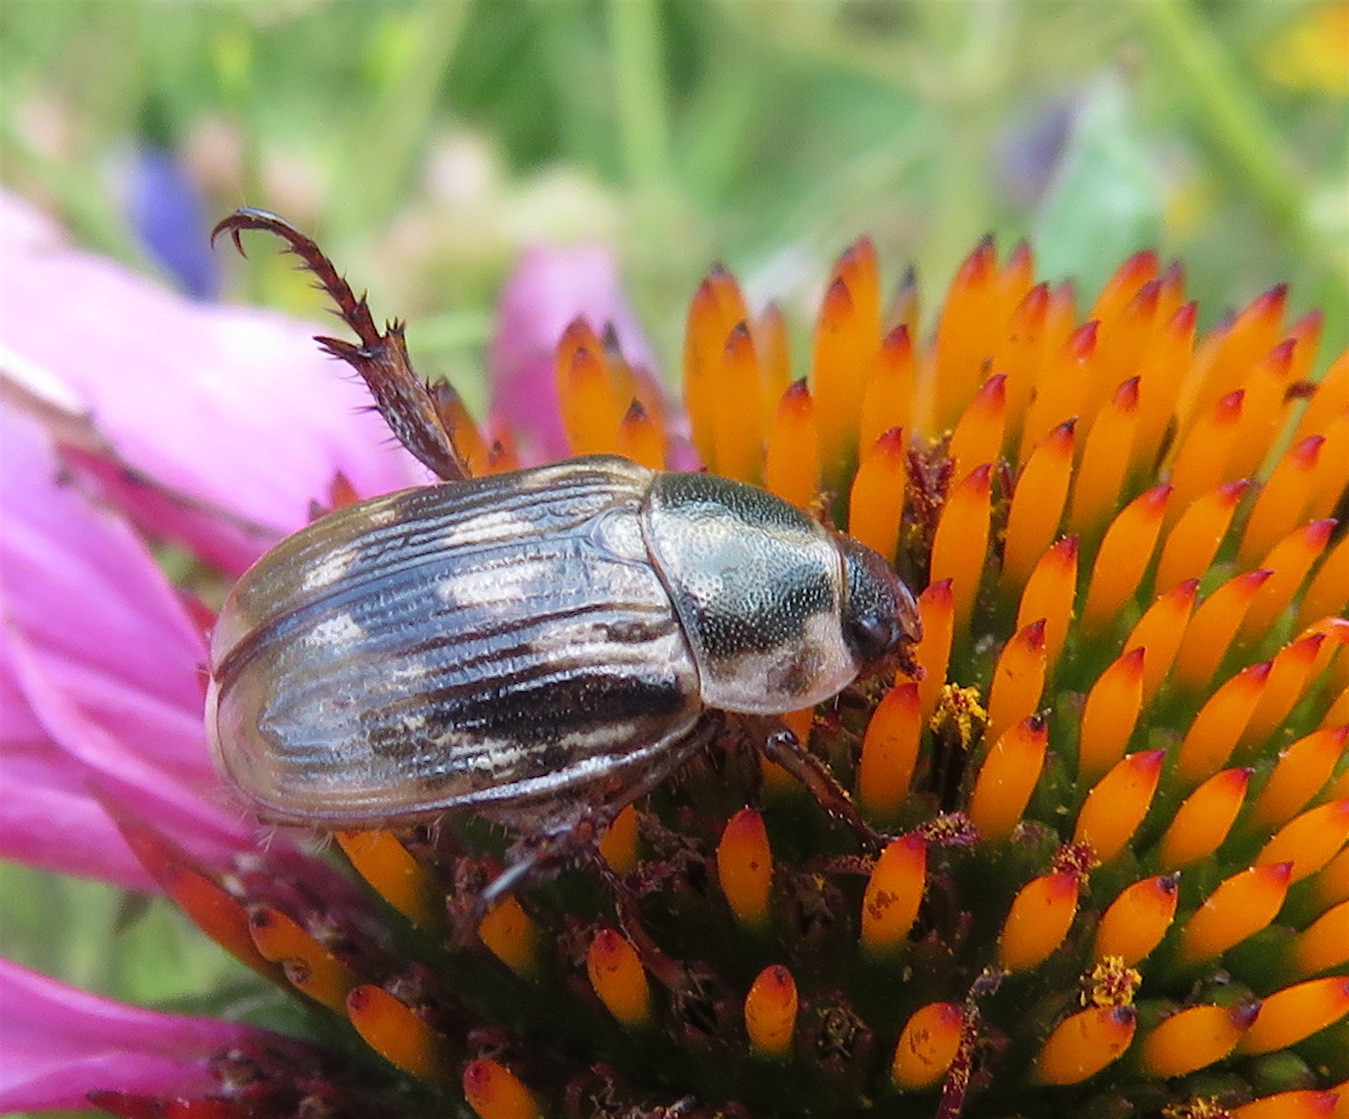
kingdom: Animalia
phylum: Arthropoda
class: Insecta
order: Coleoptera
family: Scarabaeidae
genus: Exomala
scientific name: Exomala orientalis
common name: Oriental beetle
